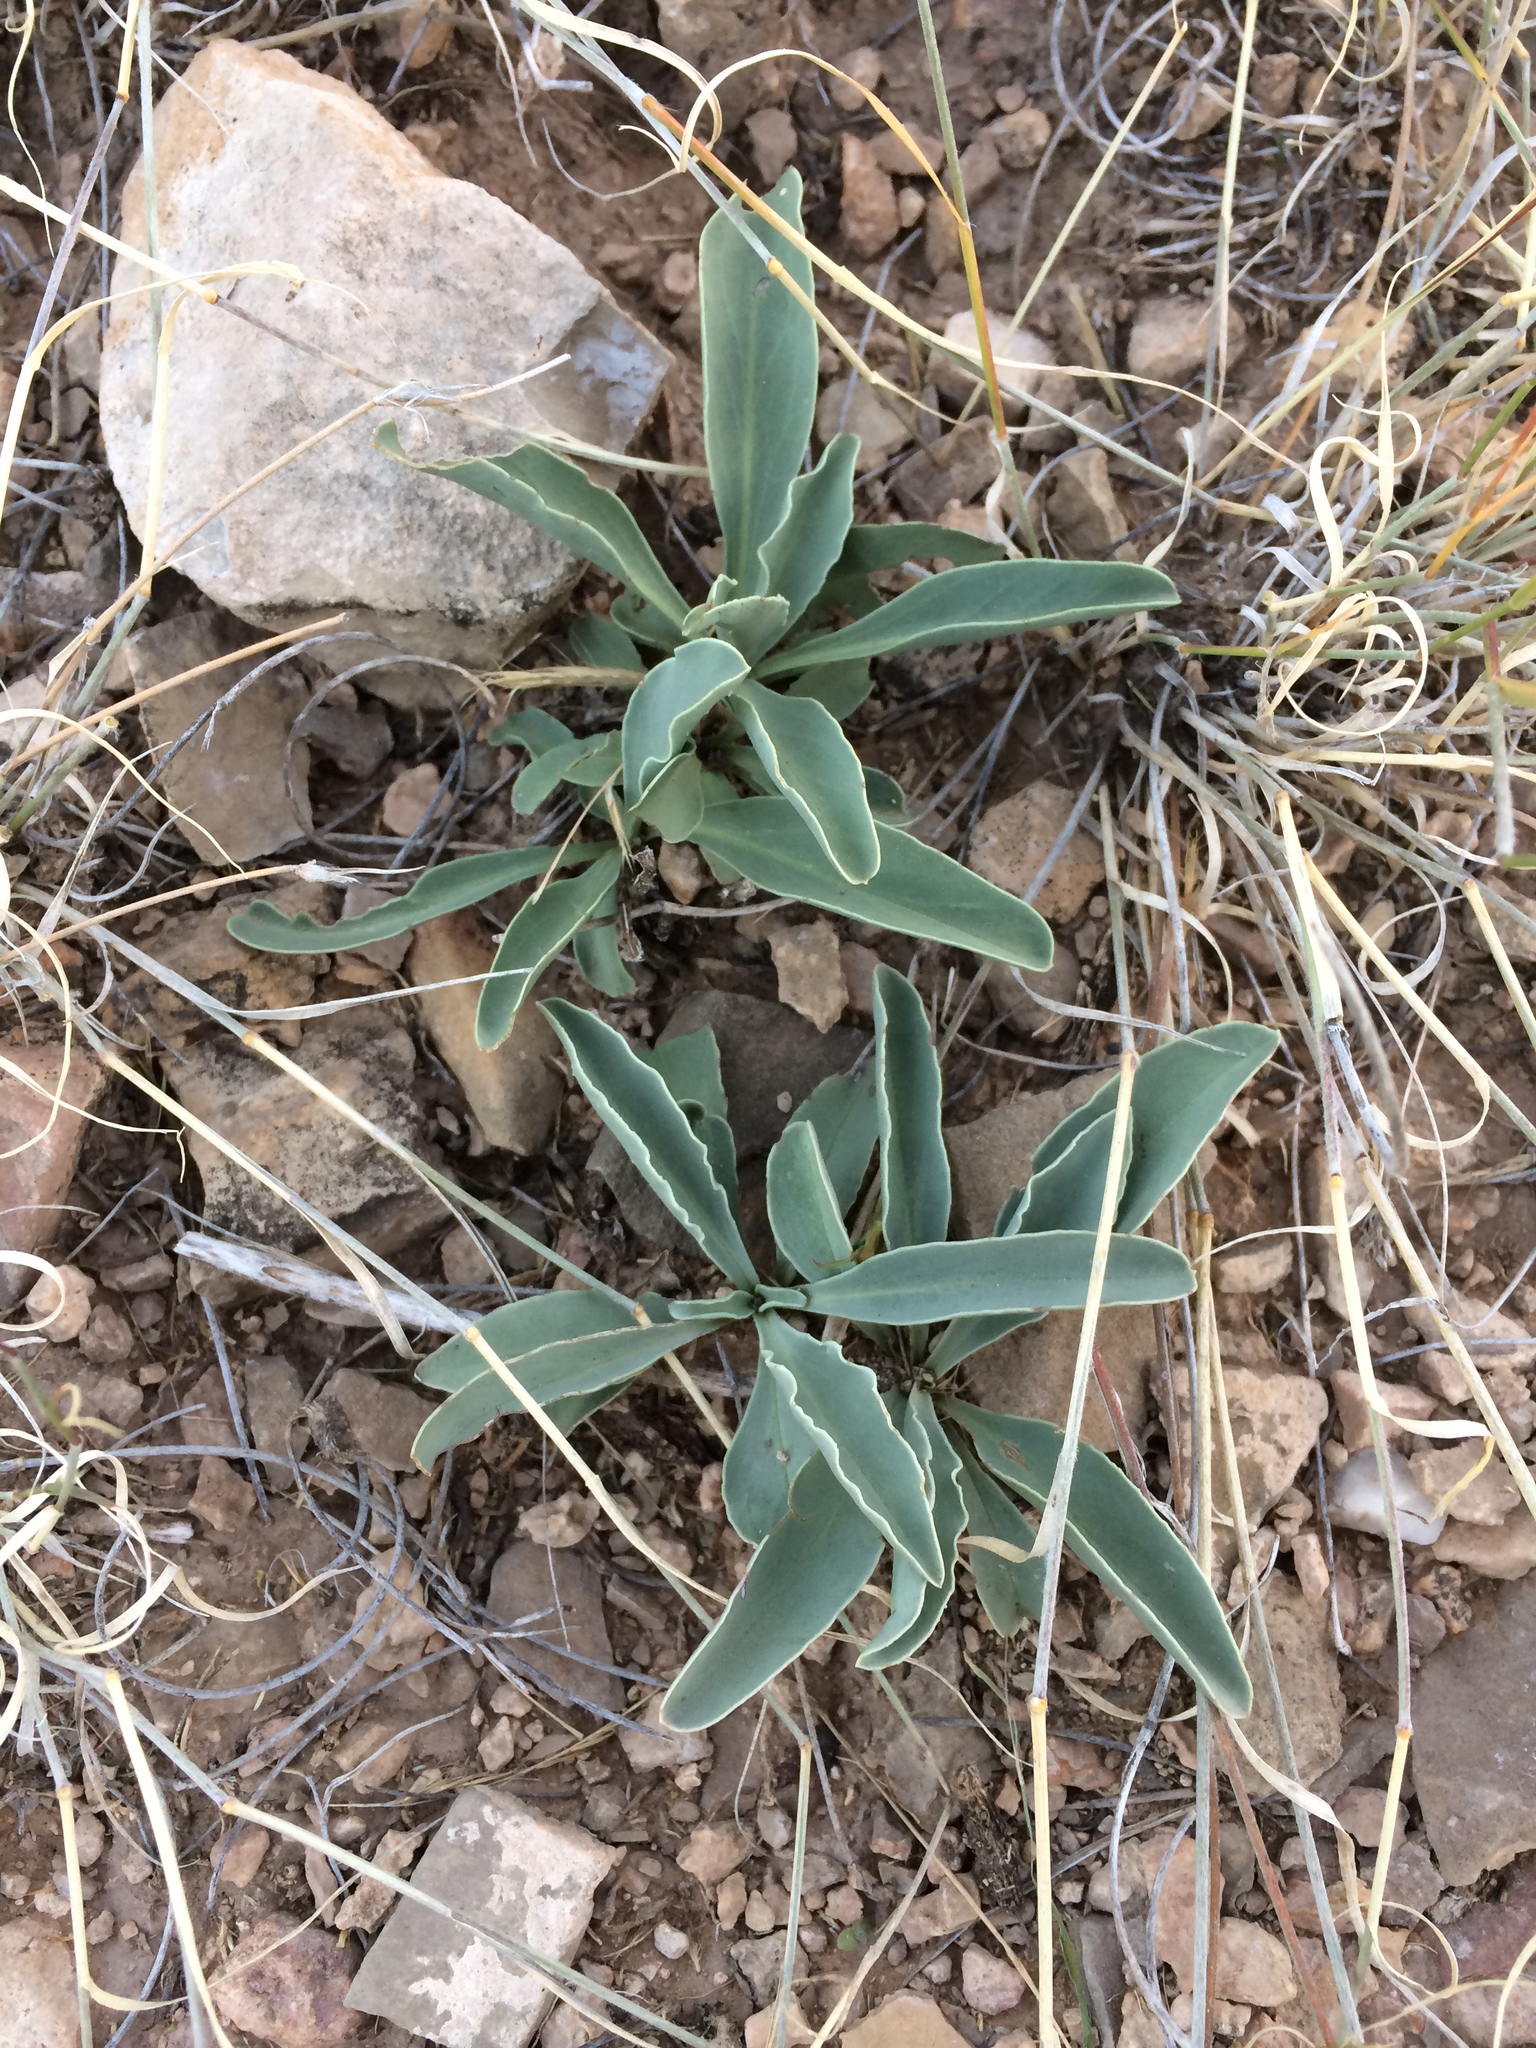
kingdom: Plantae
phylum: Tracheophyta
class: Magnoliopsida
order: Lamiales
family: Plantaginaceae
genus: Penstemon
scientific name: Penstemon fendleri
